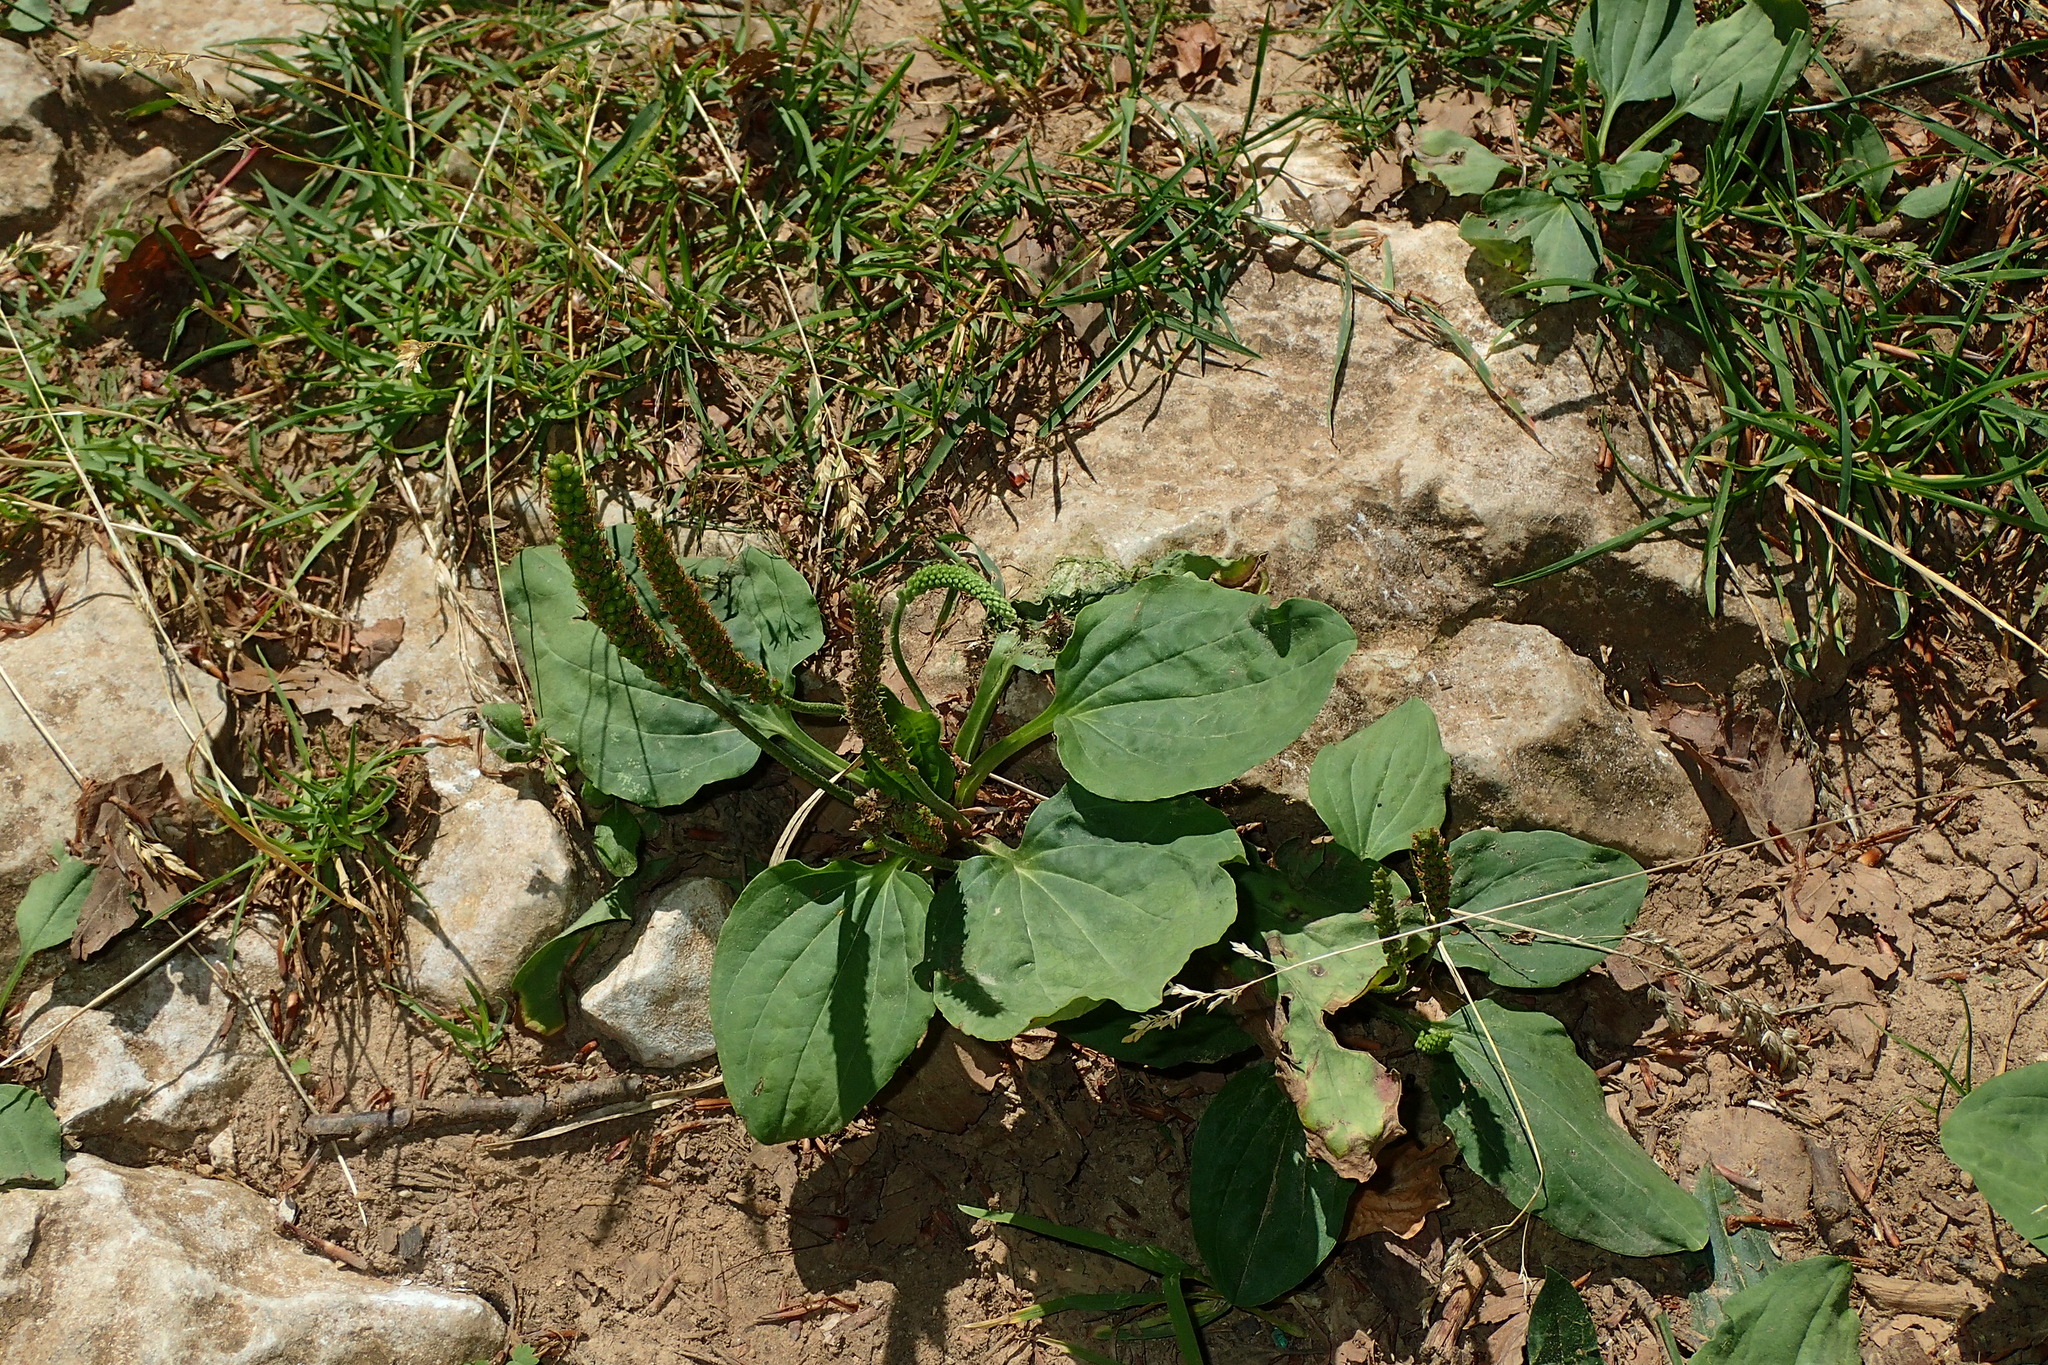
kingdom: Plantae
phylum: Tracheophyta
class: Magnoliopsida
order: Lamiales
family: Plantaginaceae
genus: Plantago
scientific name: Plantago major
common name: Common plantain
